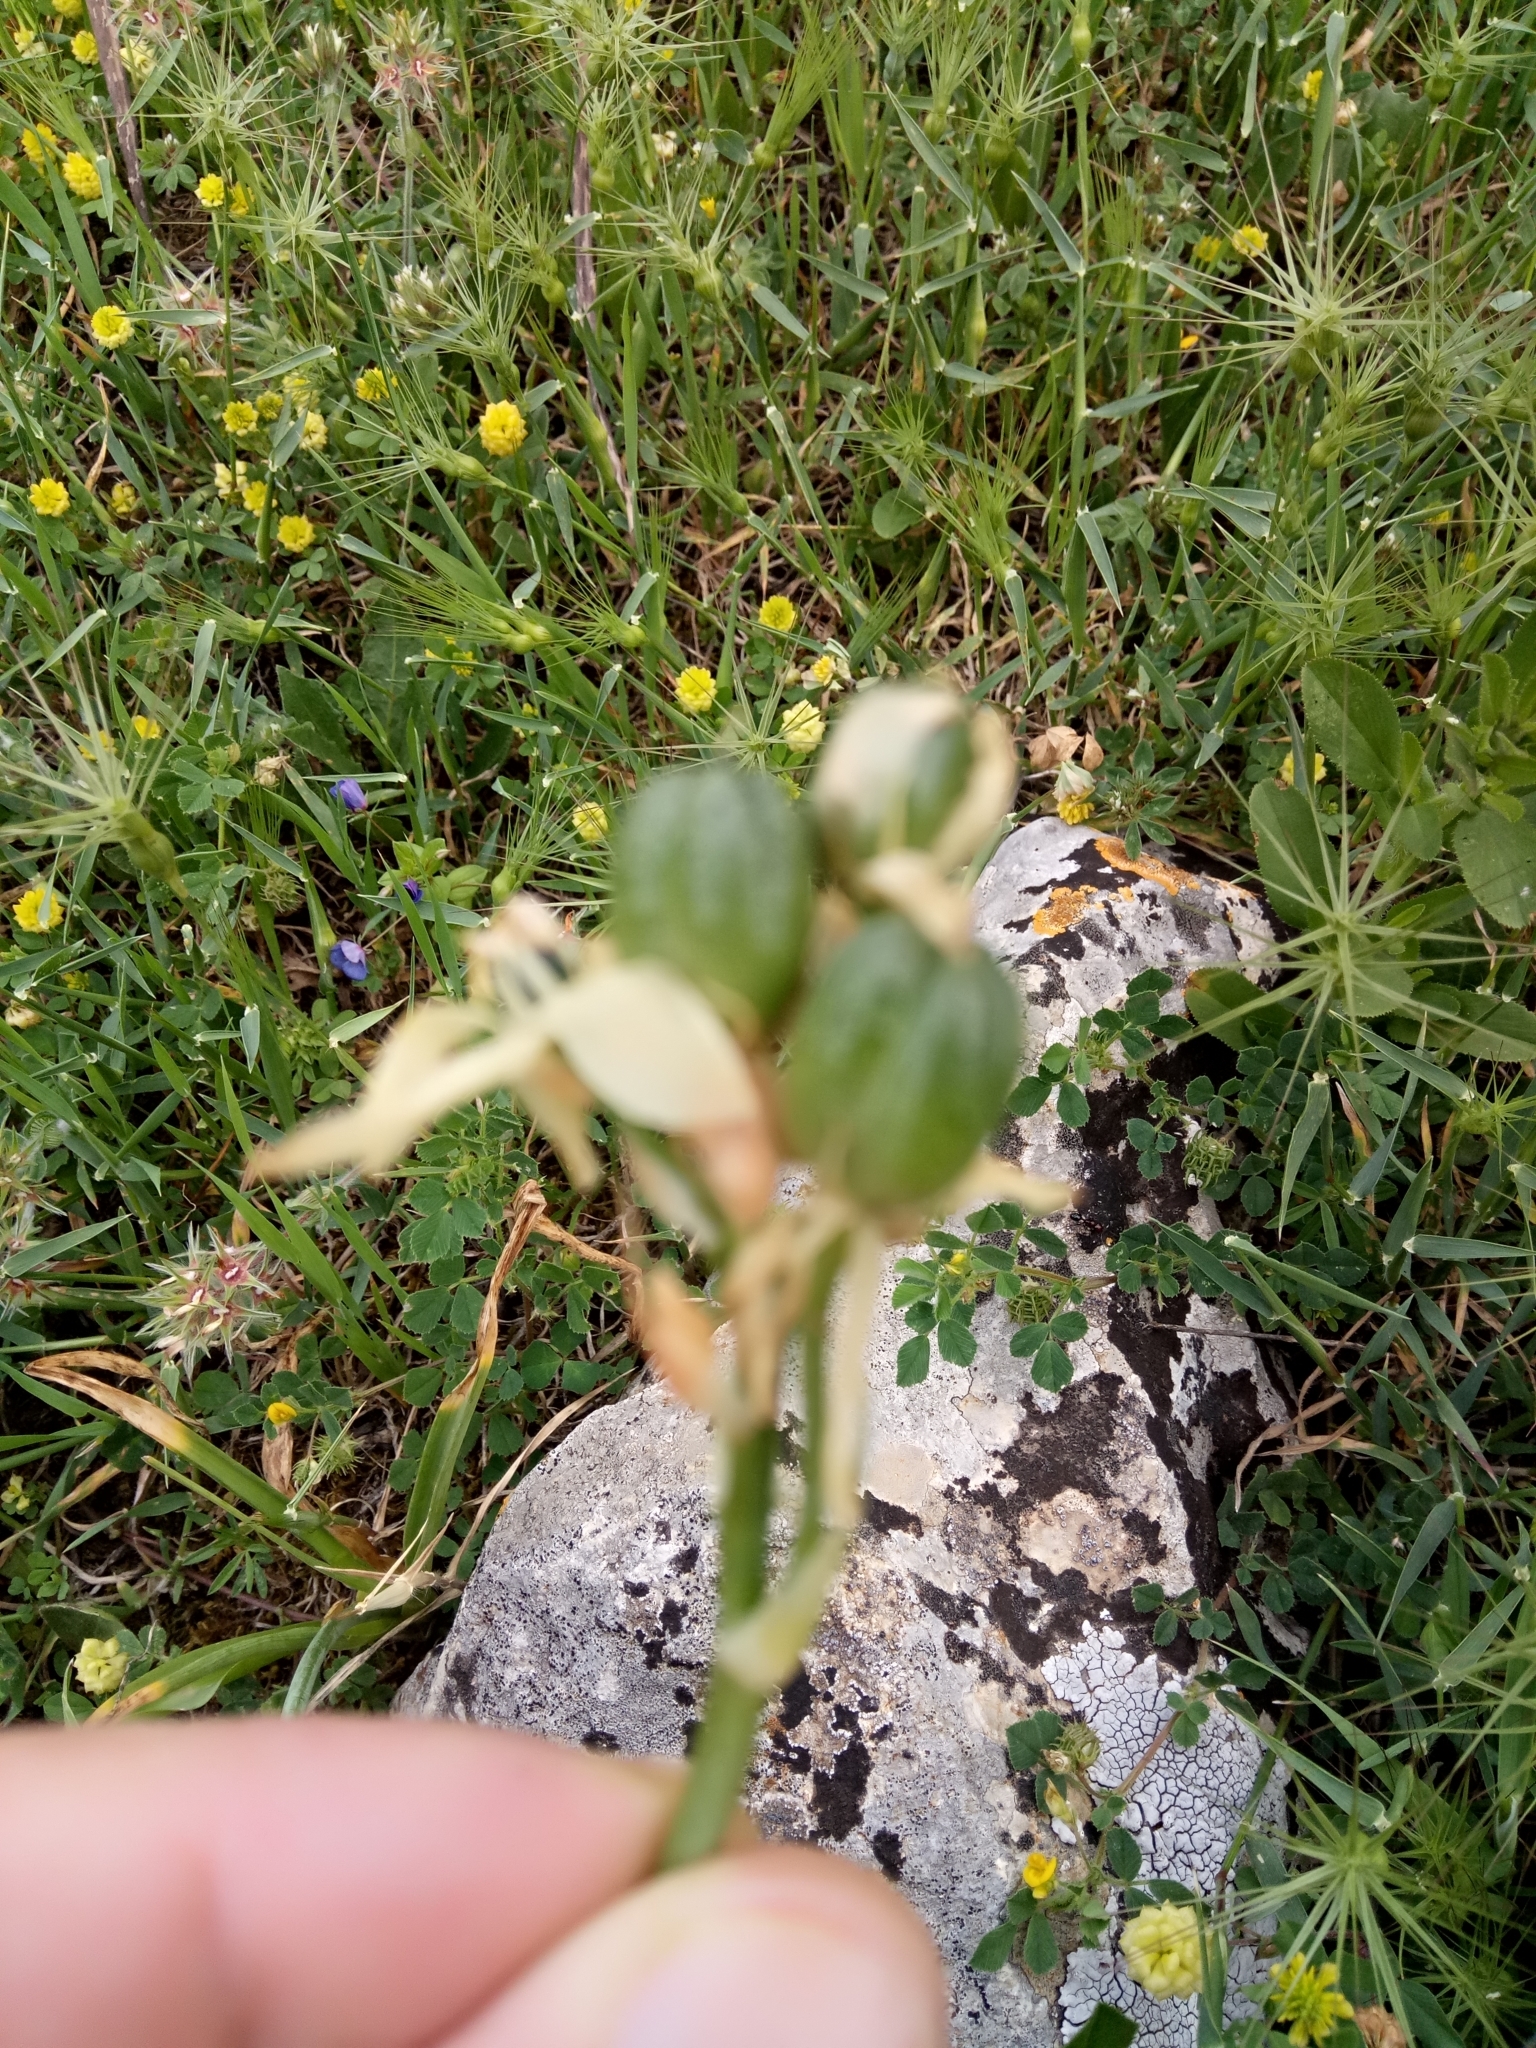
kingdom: Plantae
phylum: Tracheophyta
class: Liliopsida
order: Asparagales
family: Asparagaceae
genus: Ornithogalum
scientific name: Ornithogalum arabicum
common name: Arabian starflower
